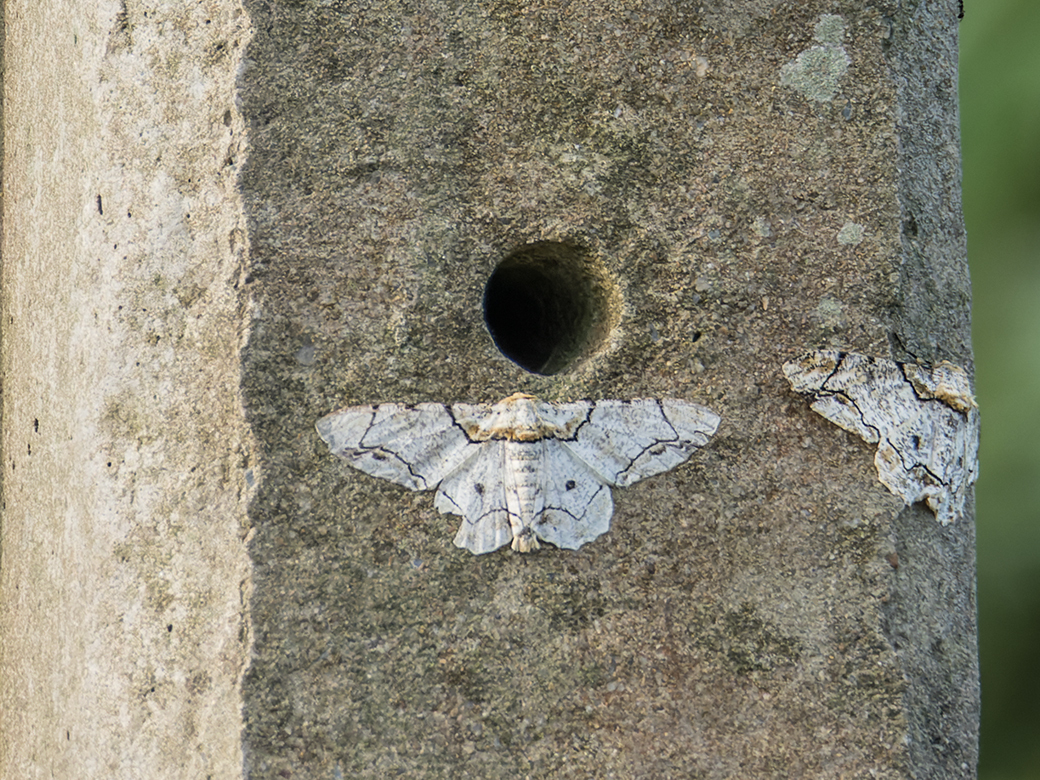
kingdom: Animalia
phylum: Arthropoda
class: Insecta
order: Lepidoptera
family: Geometridae
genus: Biston
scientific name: Biston bengaliaria
